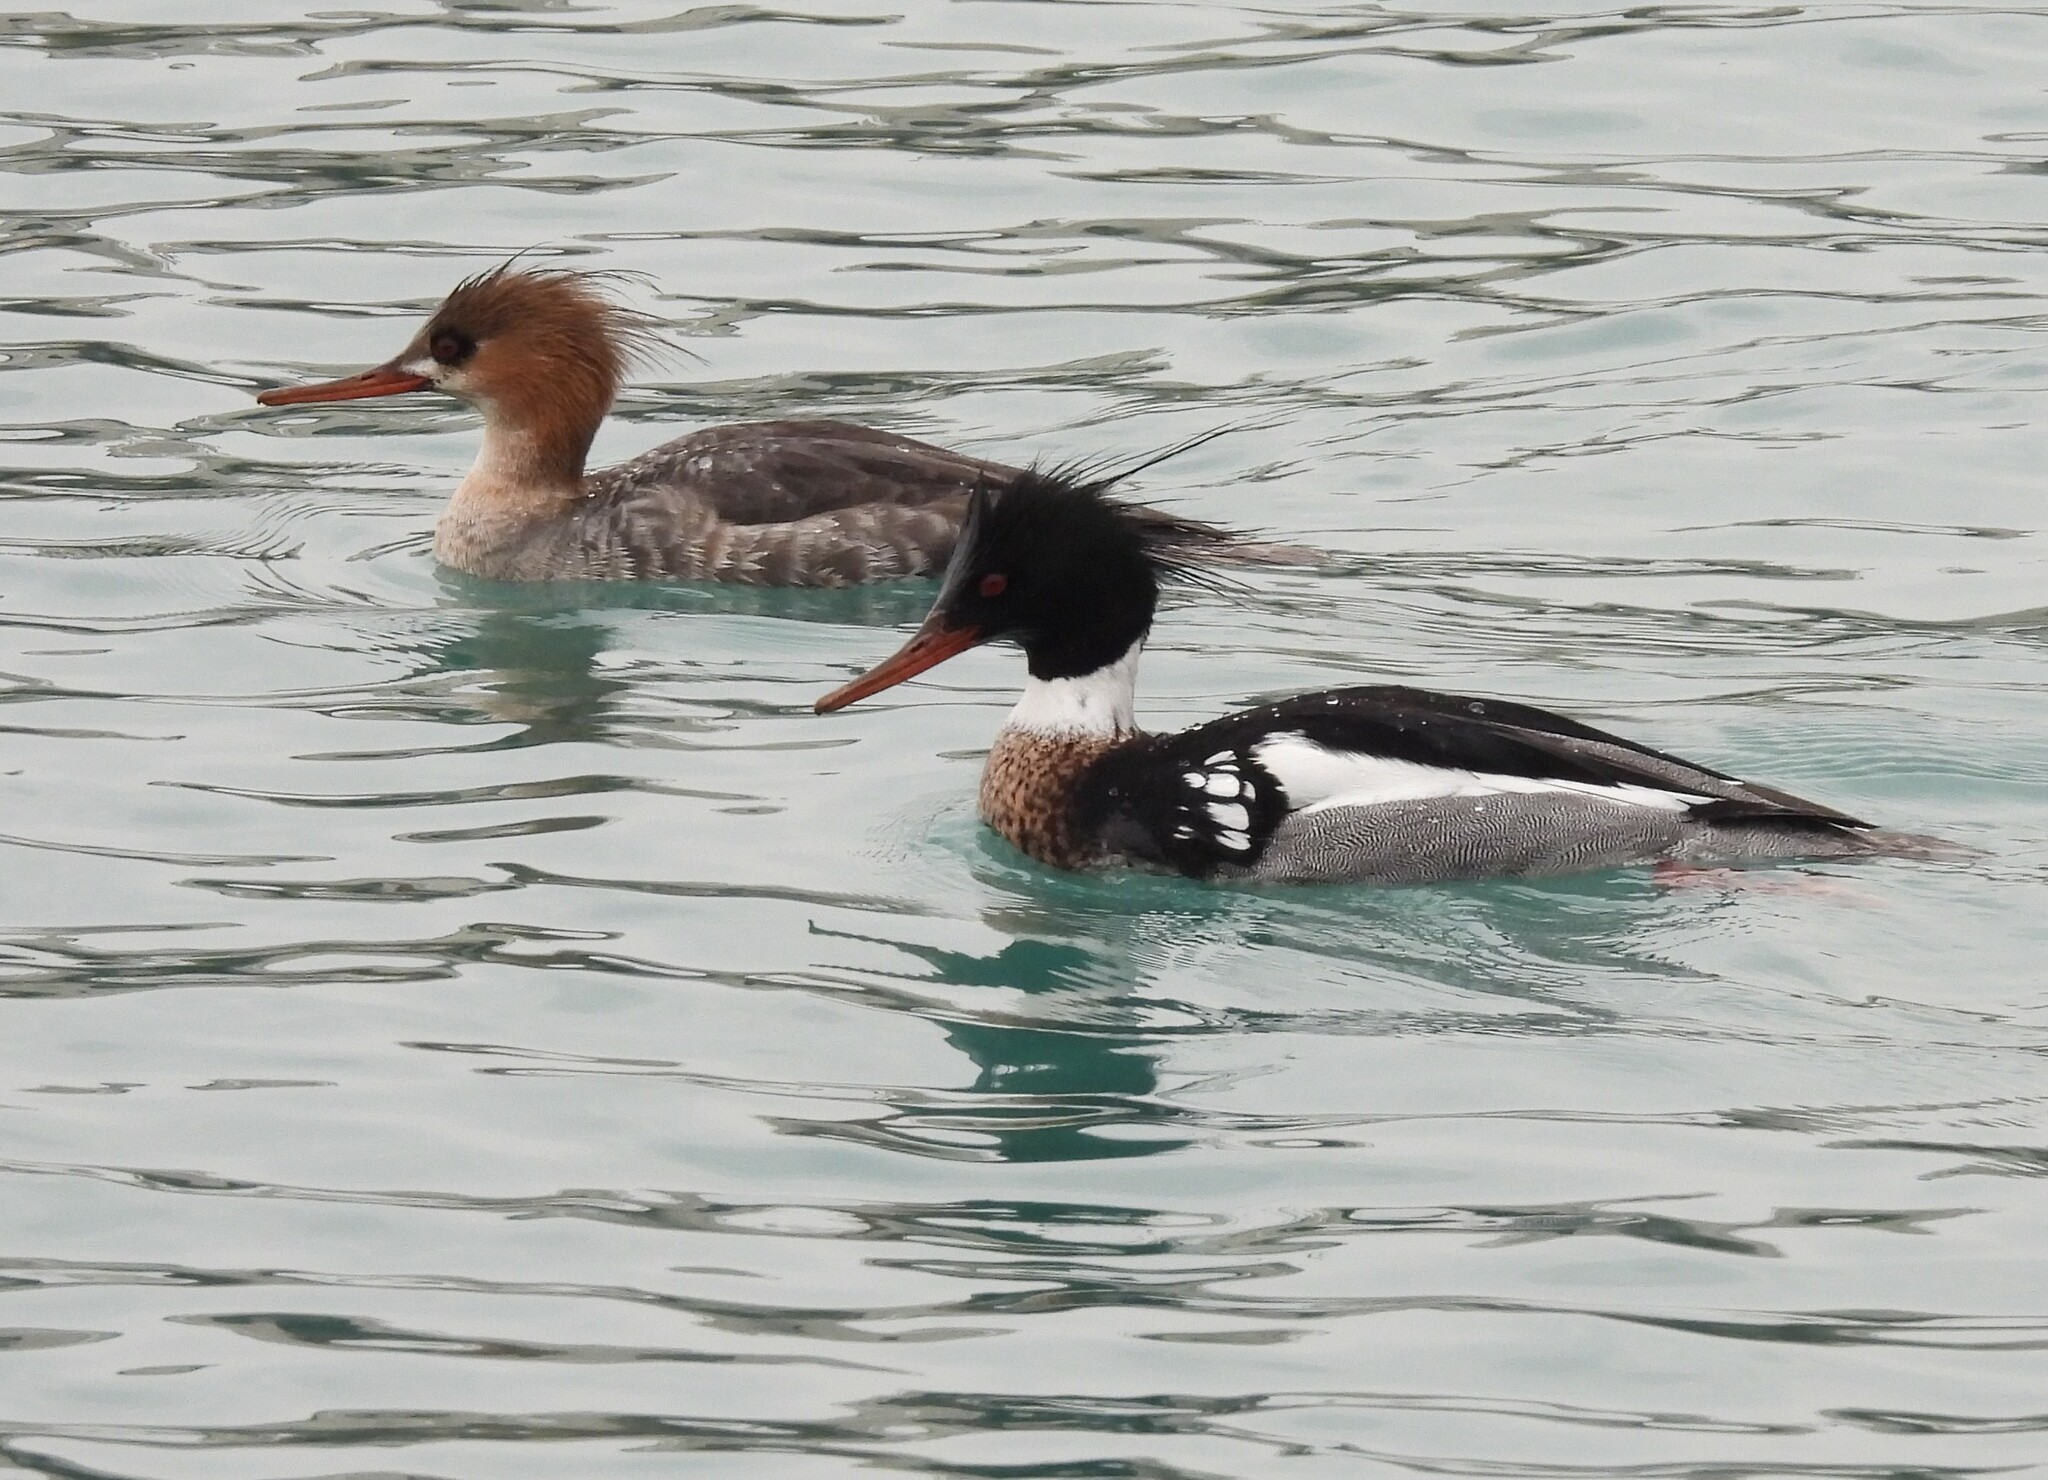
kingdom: Animalia
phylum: Chordata
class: Aves
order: Anseriformes
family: Anatidae
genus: Mergus
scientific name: Mergus serrator
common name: Red-breasted merganser
